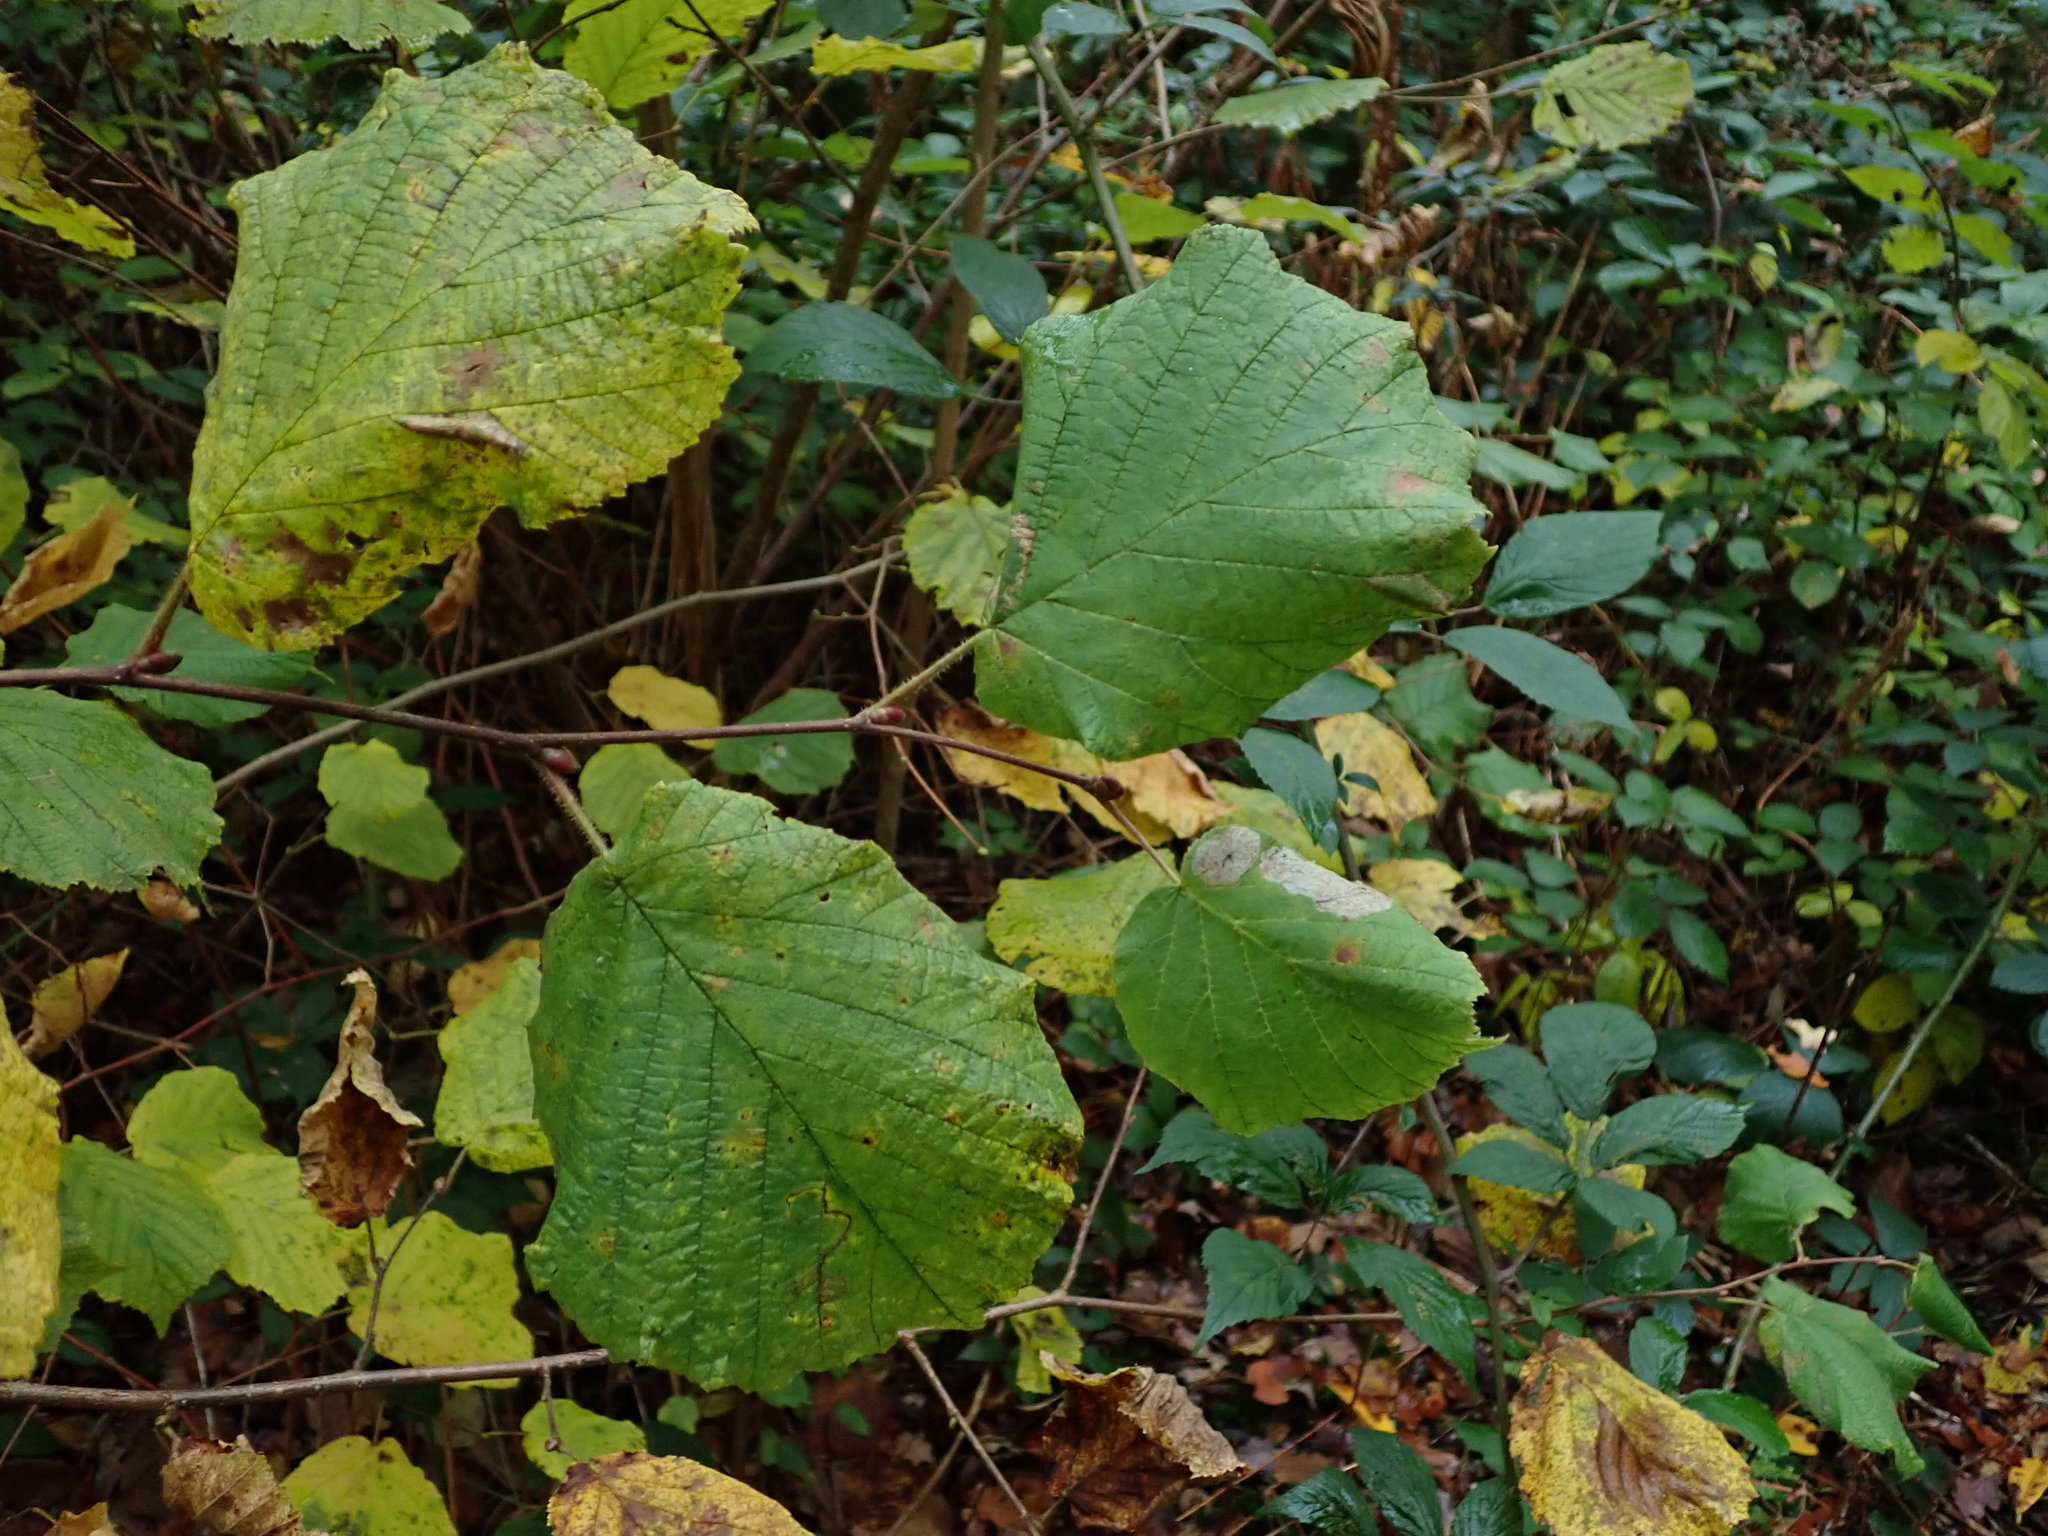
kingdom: Plantae
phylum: Tracheophyta
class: Magnoliopsida
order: Fagales
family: Betulaceae
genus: Corylus
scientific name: Corylus avellana
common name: European hazel
